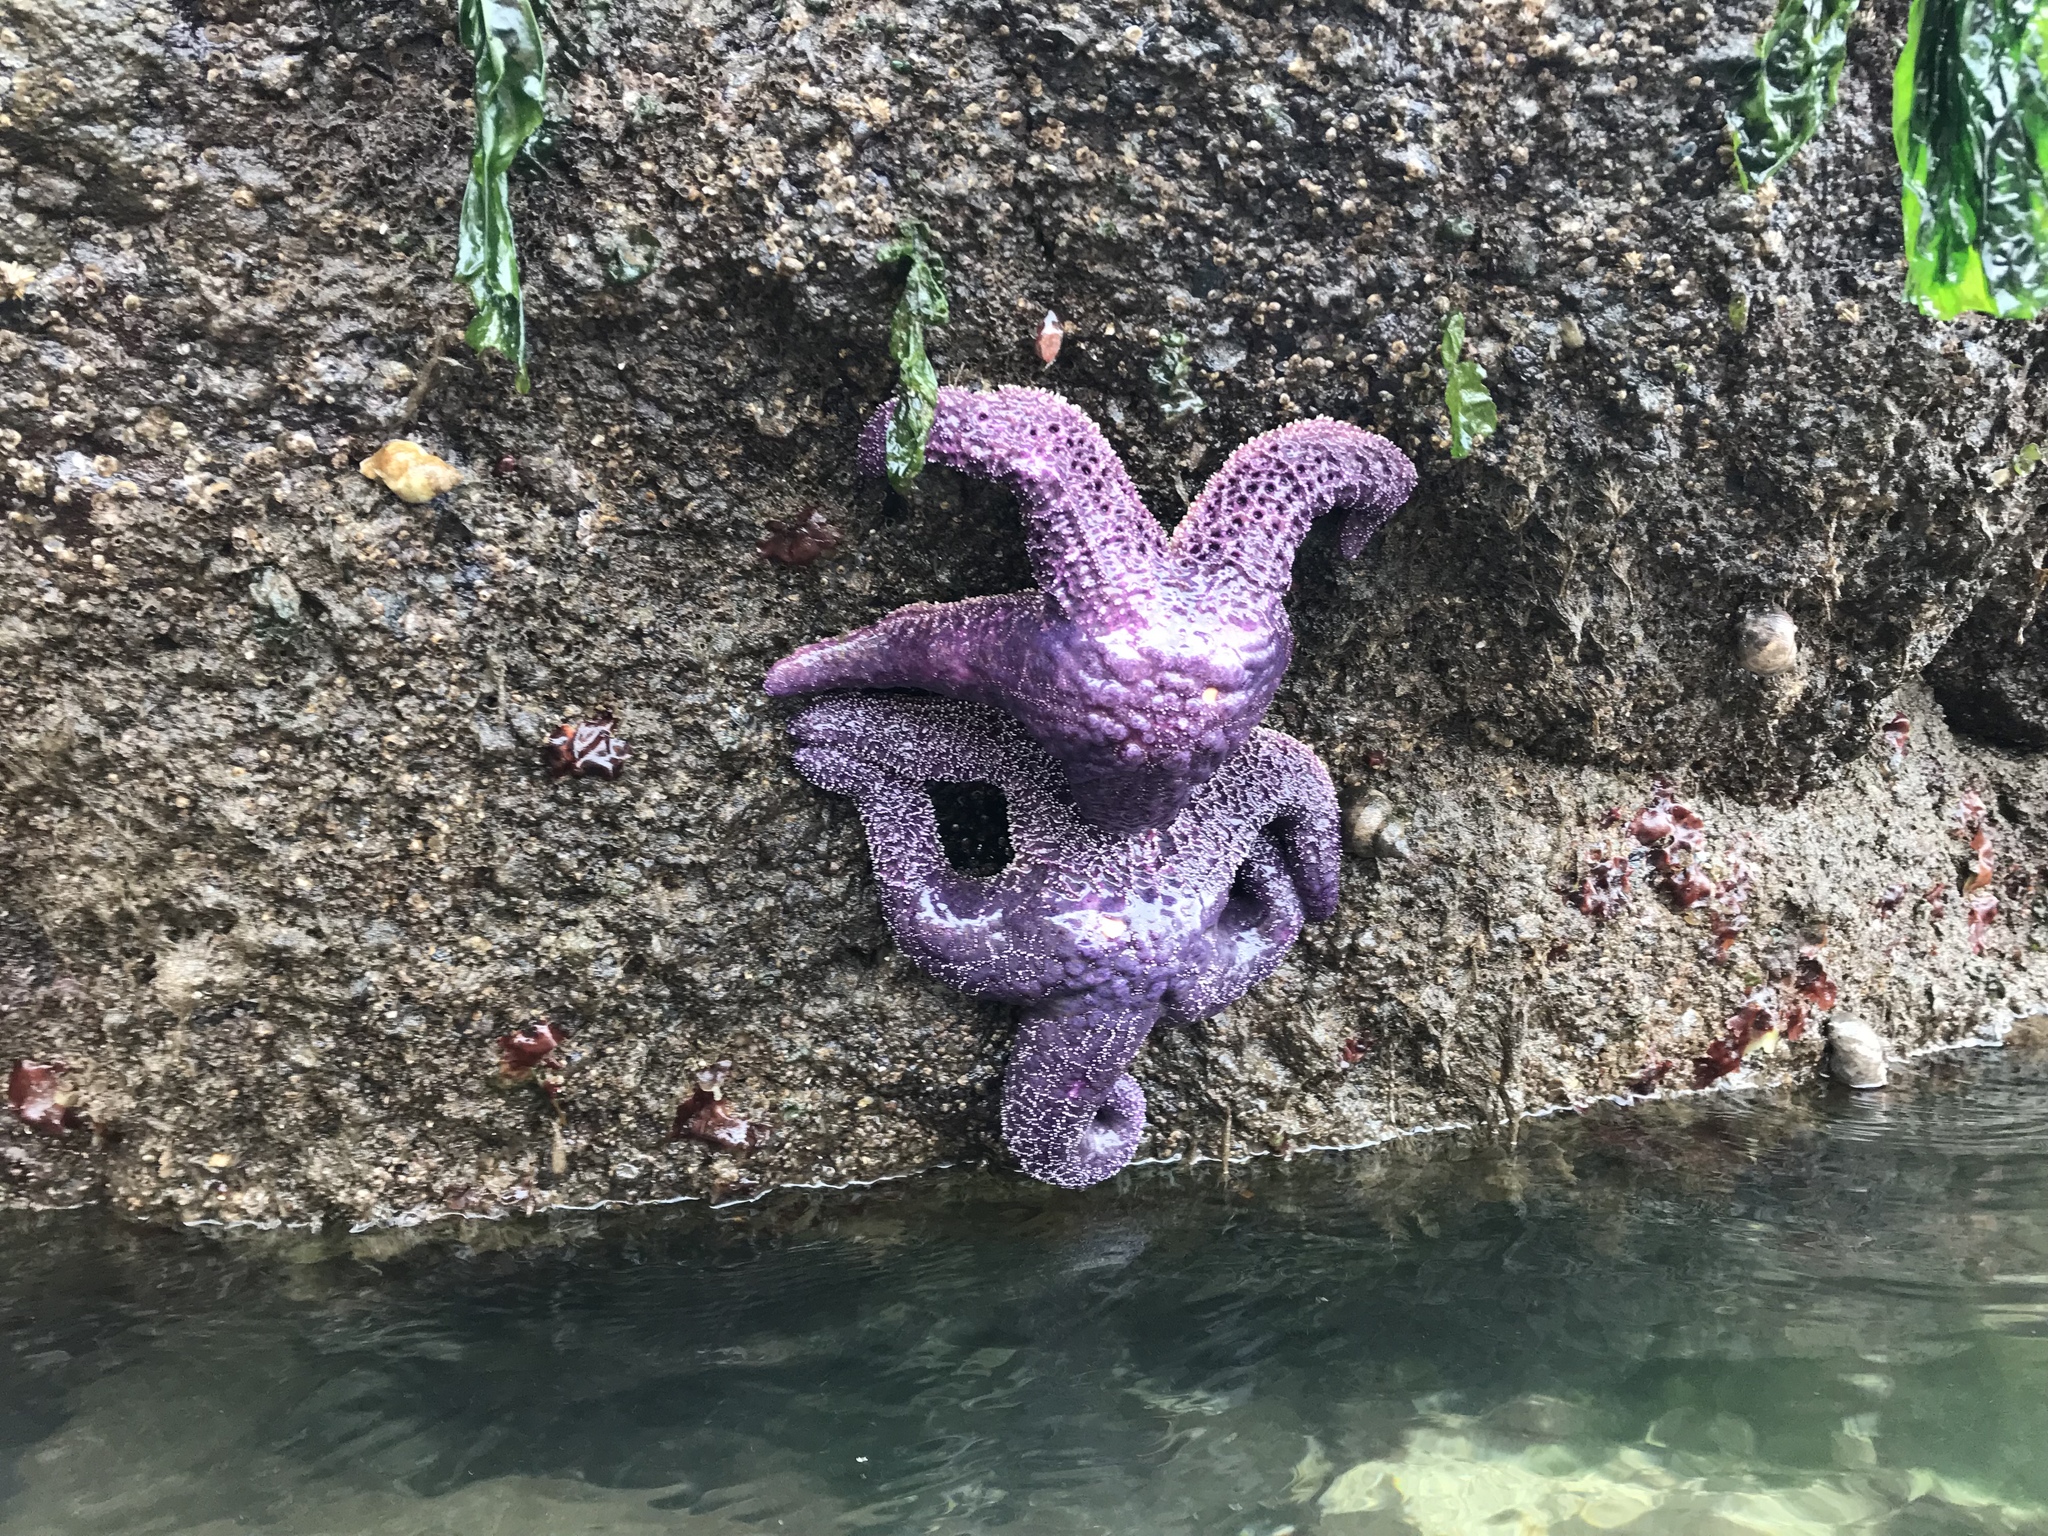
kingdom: Animalia
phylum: Echinodermata
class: Asteroidea
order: Forcipulatida
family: Asteriidae
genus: Pisaster
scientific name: Pisaster ochraceus
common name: Ochre stars
